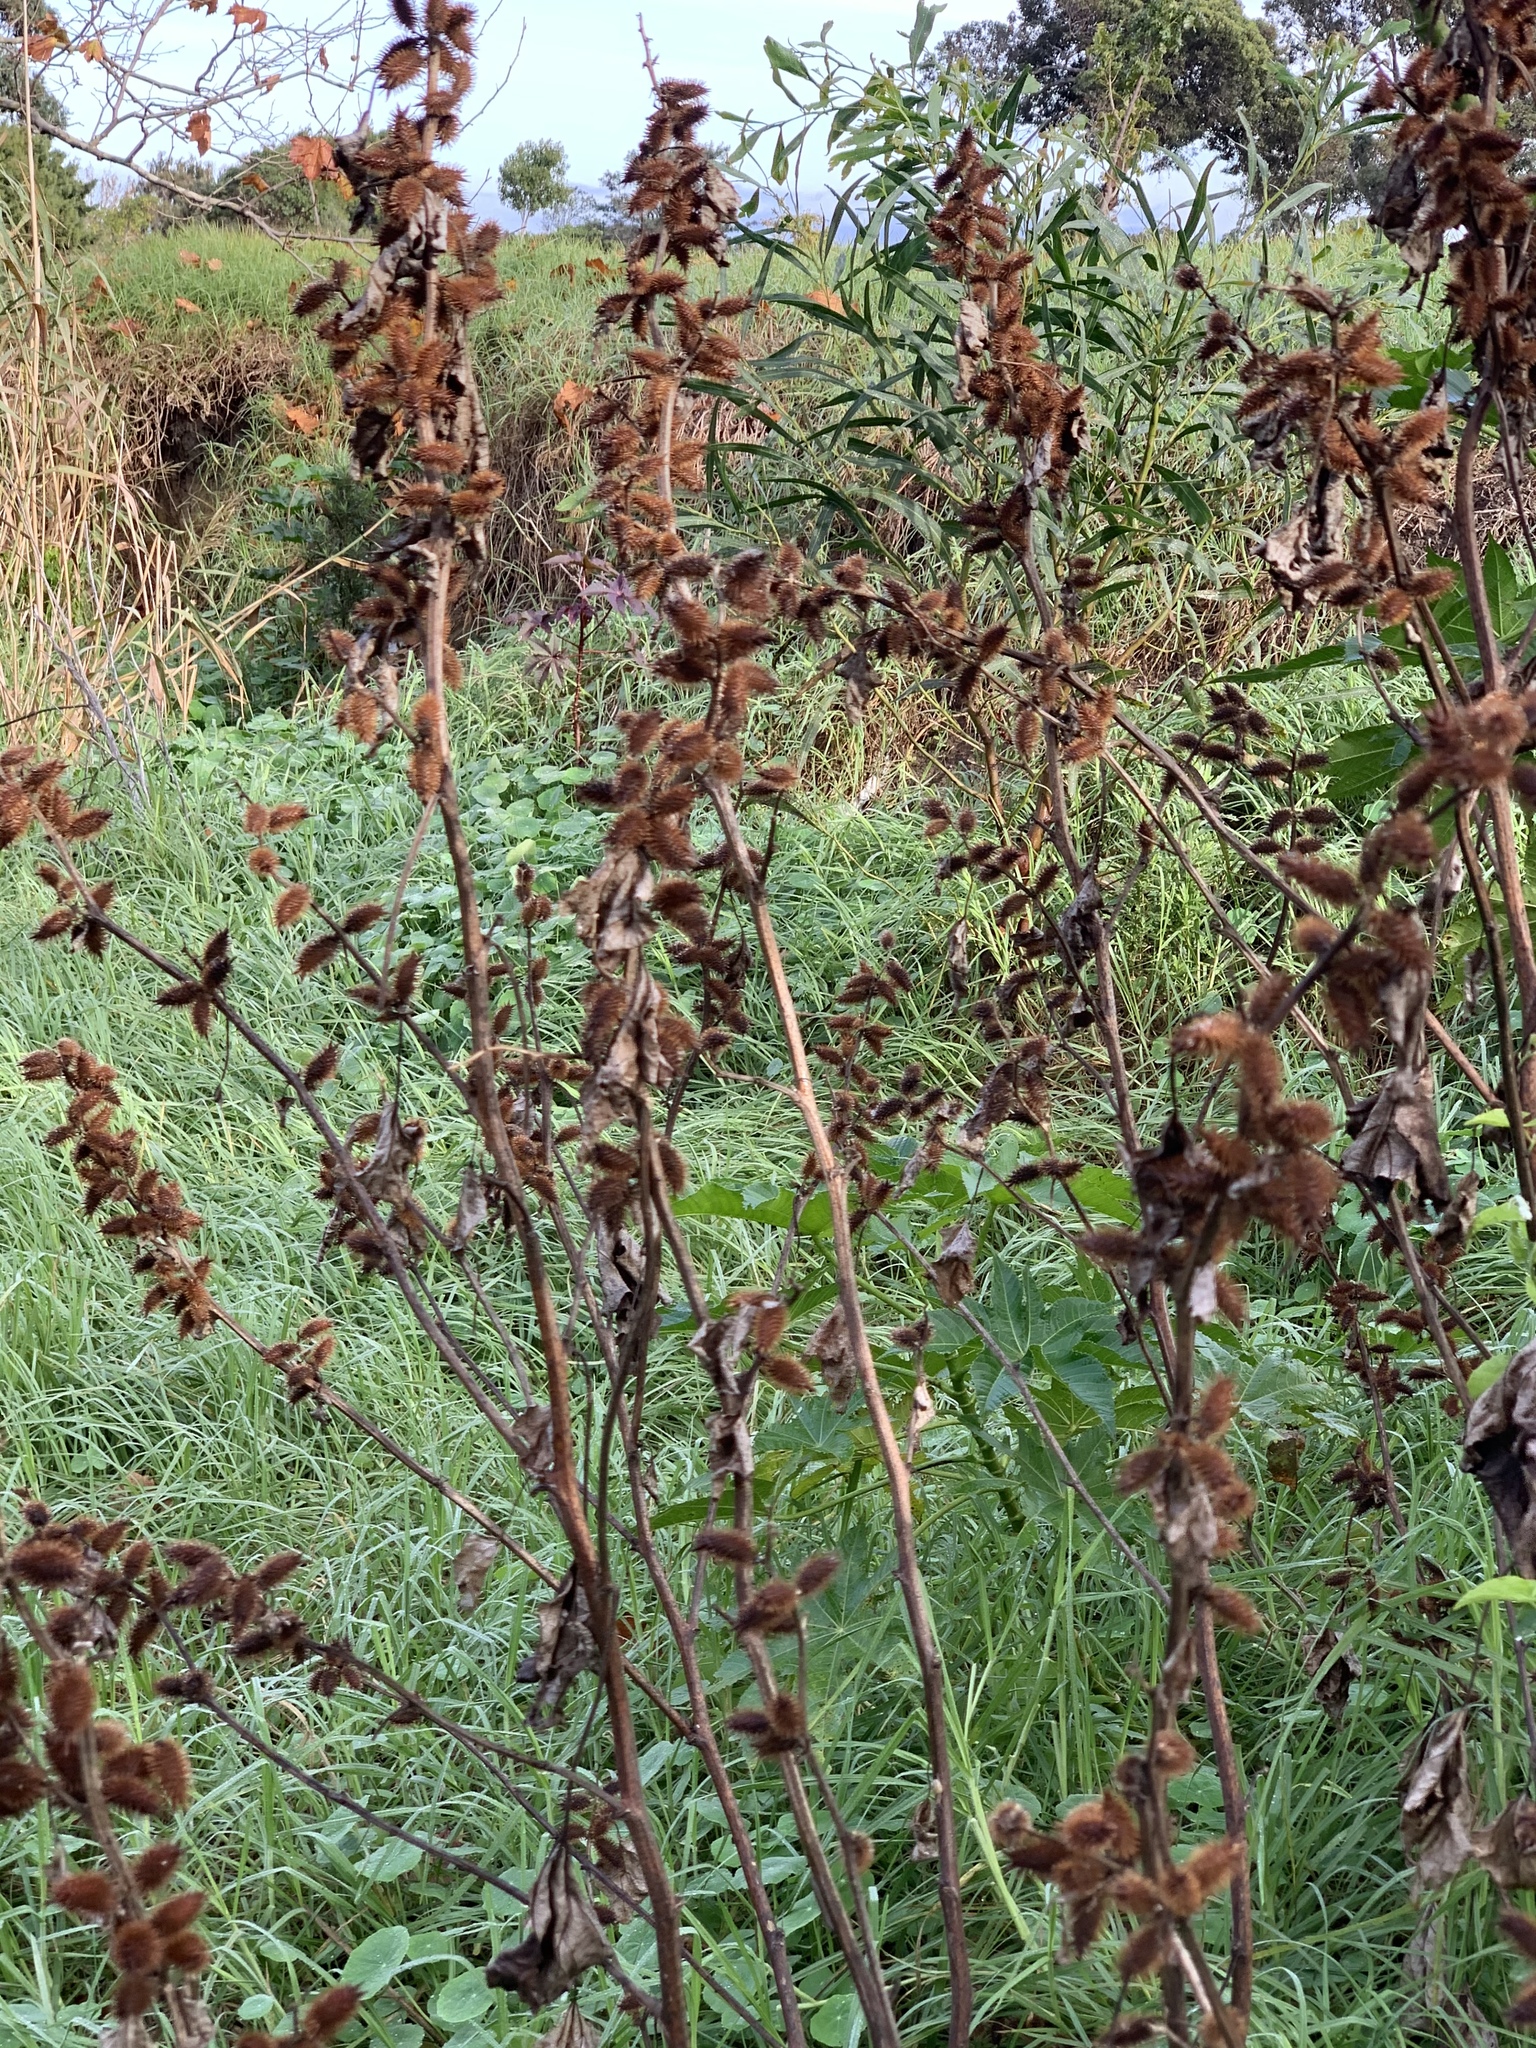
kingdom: Plantae
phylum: Tracheophyta
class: Magnoliopsida
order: Asterales
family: Asteraceae
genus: Xanthium
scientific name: Xanthium strumarium
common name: Rough cocklebur
